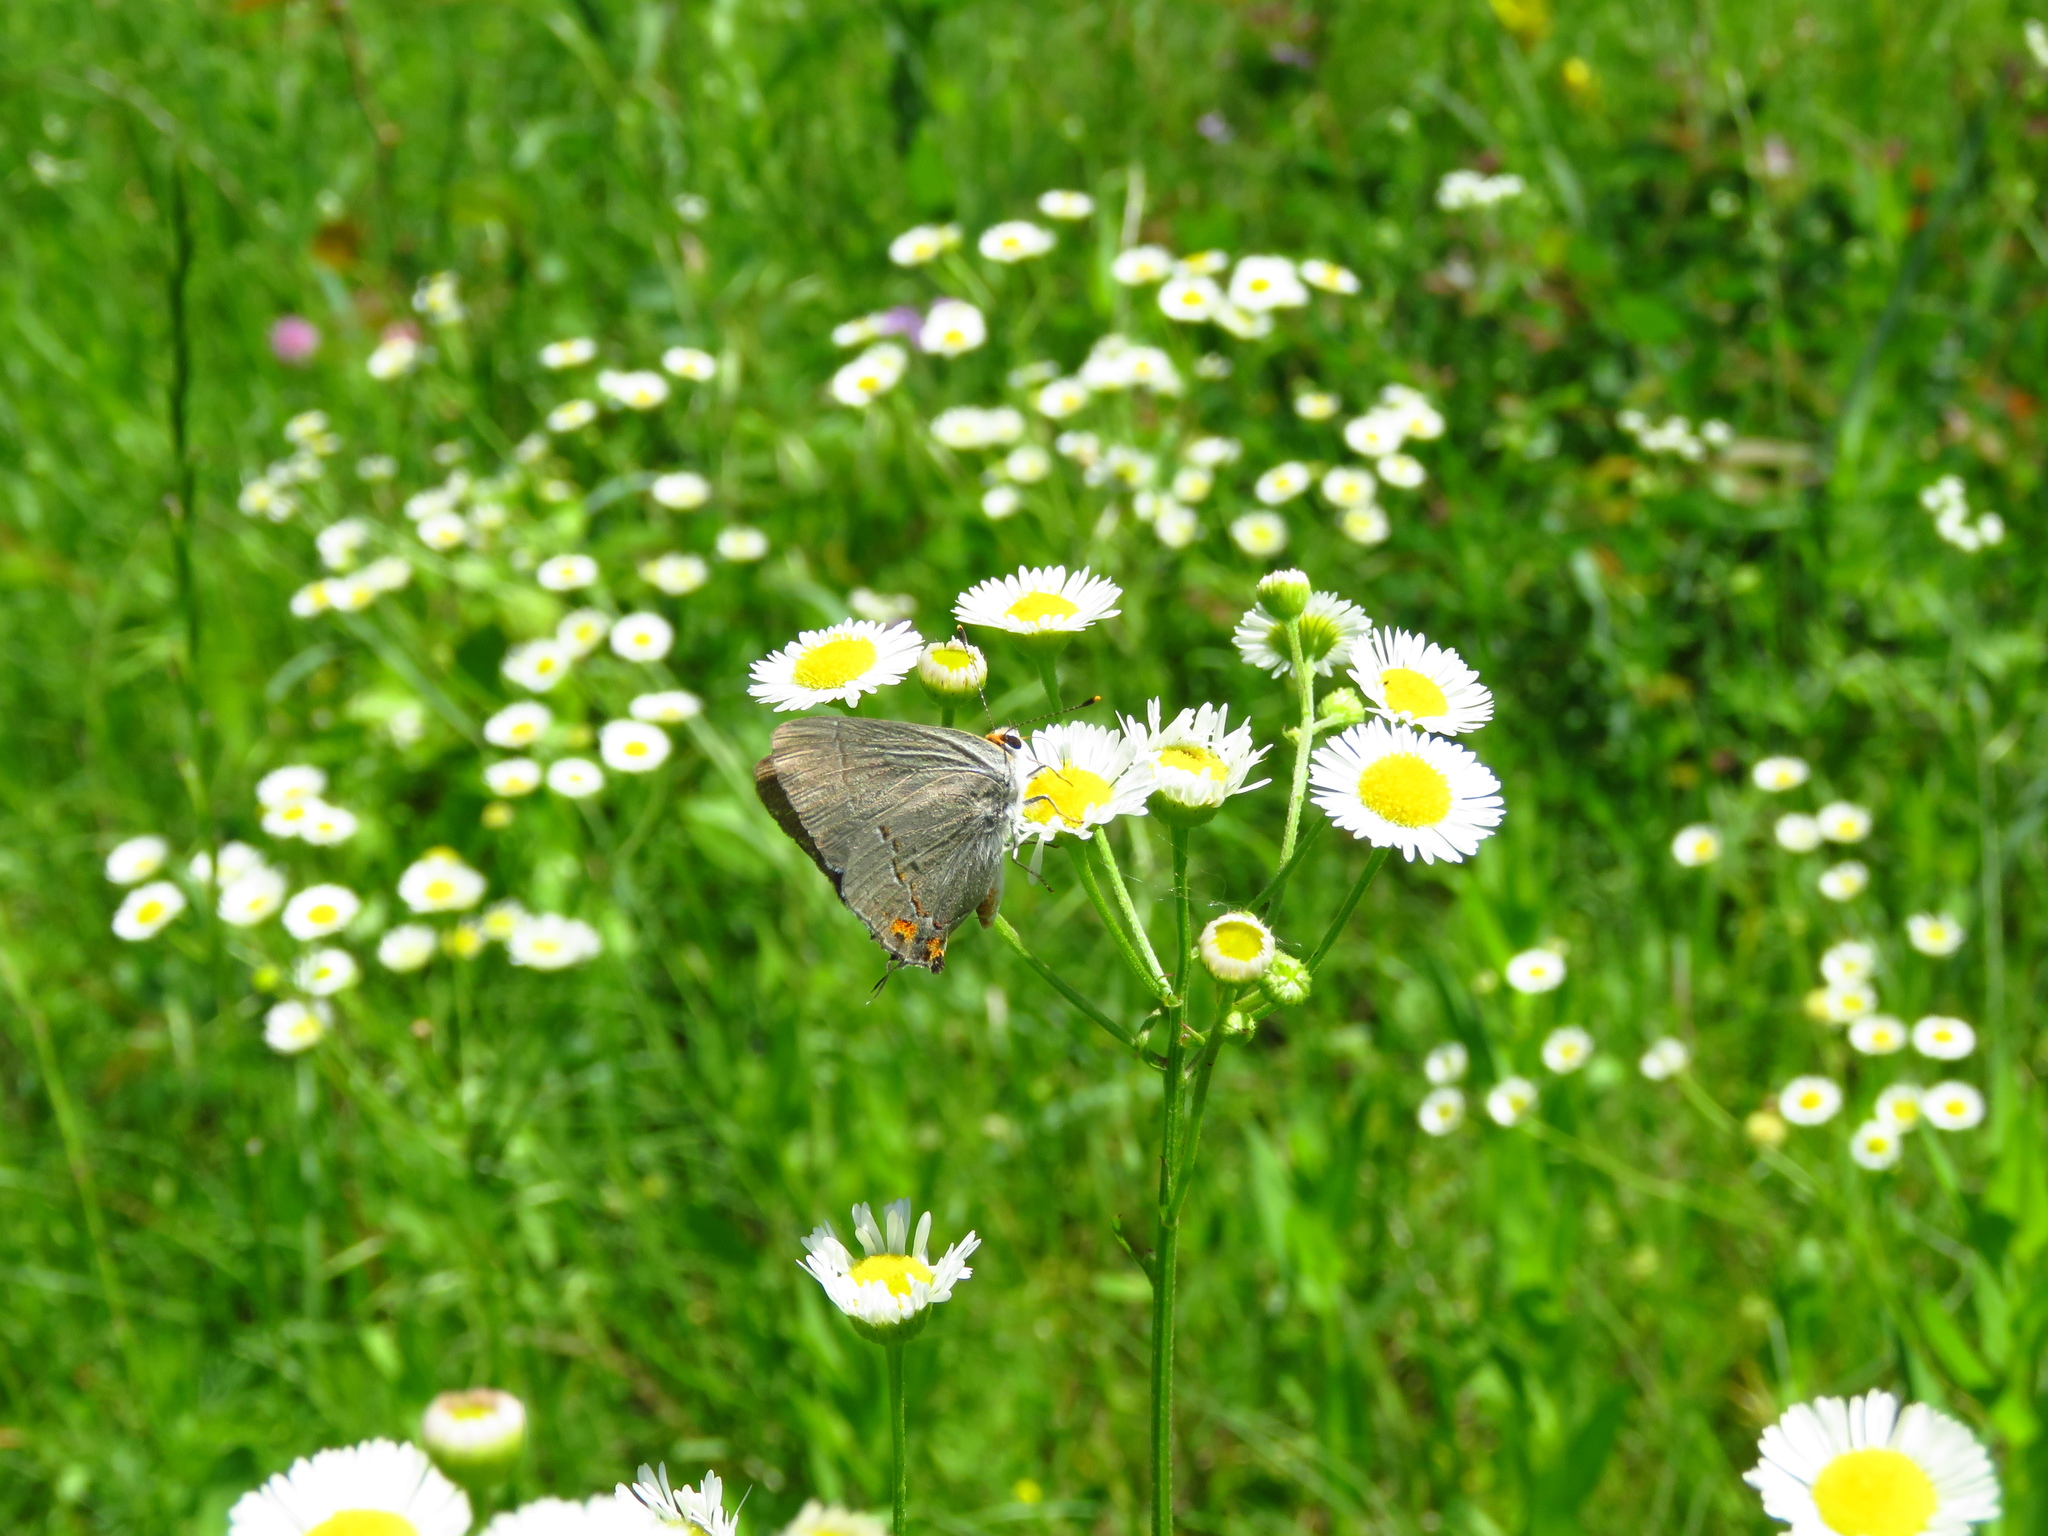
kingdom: Animalia
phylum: Arthropoda
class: Insecta
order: Lepidoptera
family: Lycaenidae
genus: Strymon
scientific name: Strymon melinus
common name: Gray hairstreak
